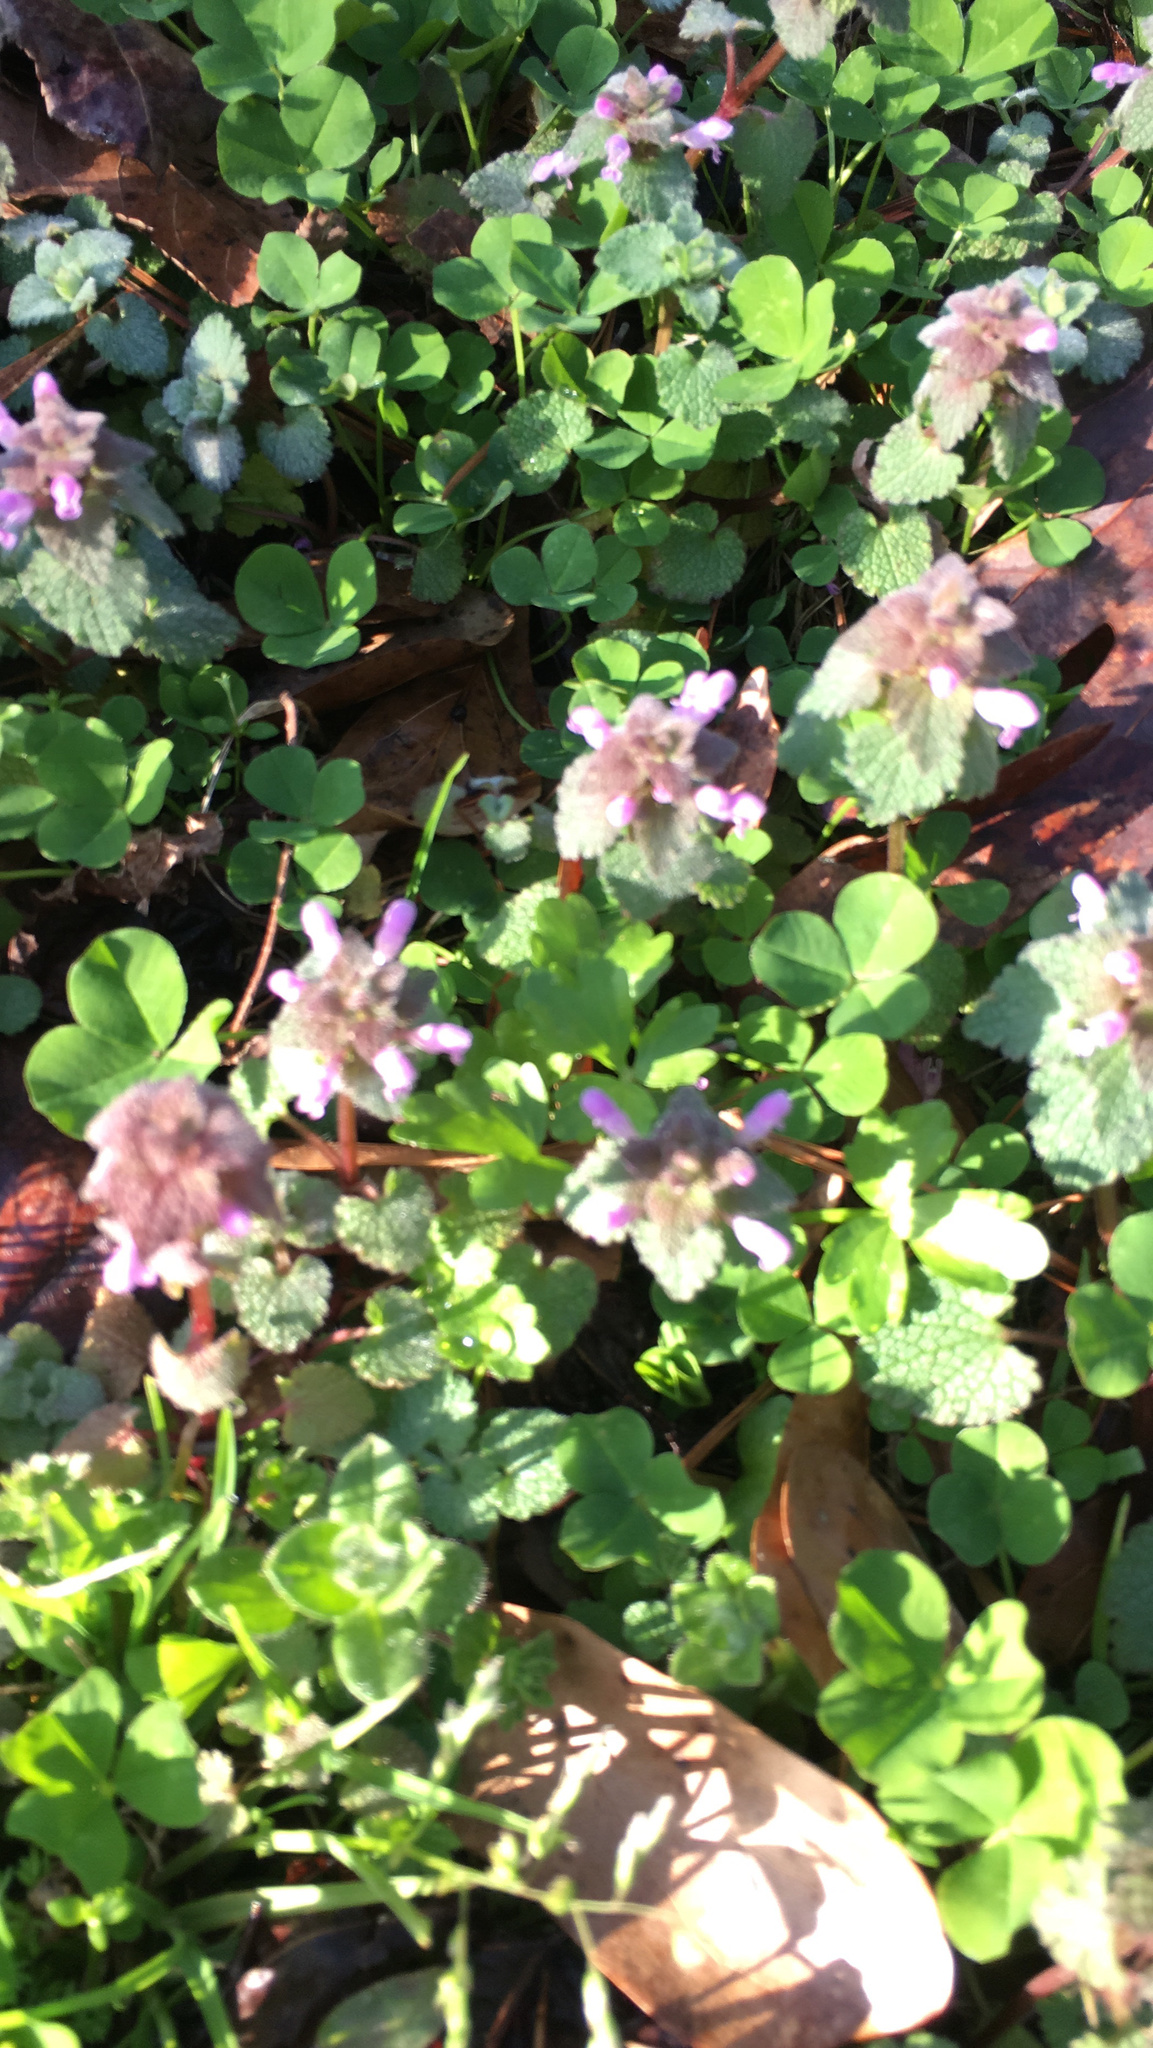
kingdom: Plantae
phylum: Tracheophyta
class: Magnoliopsida
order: Lamiales
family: Lamiaceae
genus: Lamium
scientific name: Lamium purpureum
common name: Red dead-nettle
